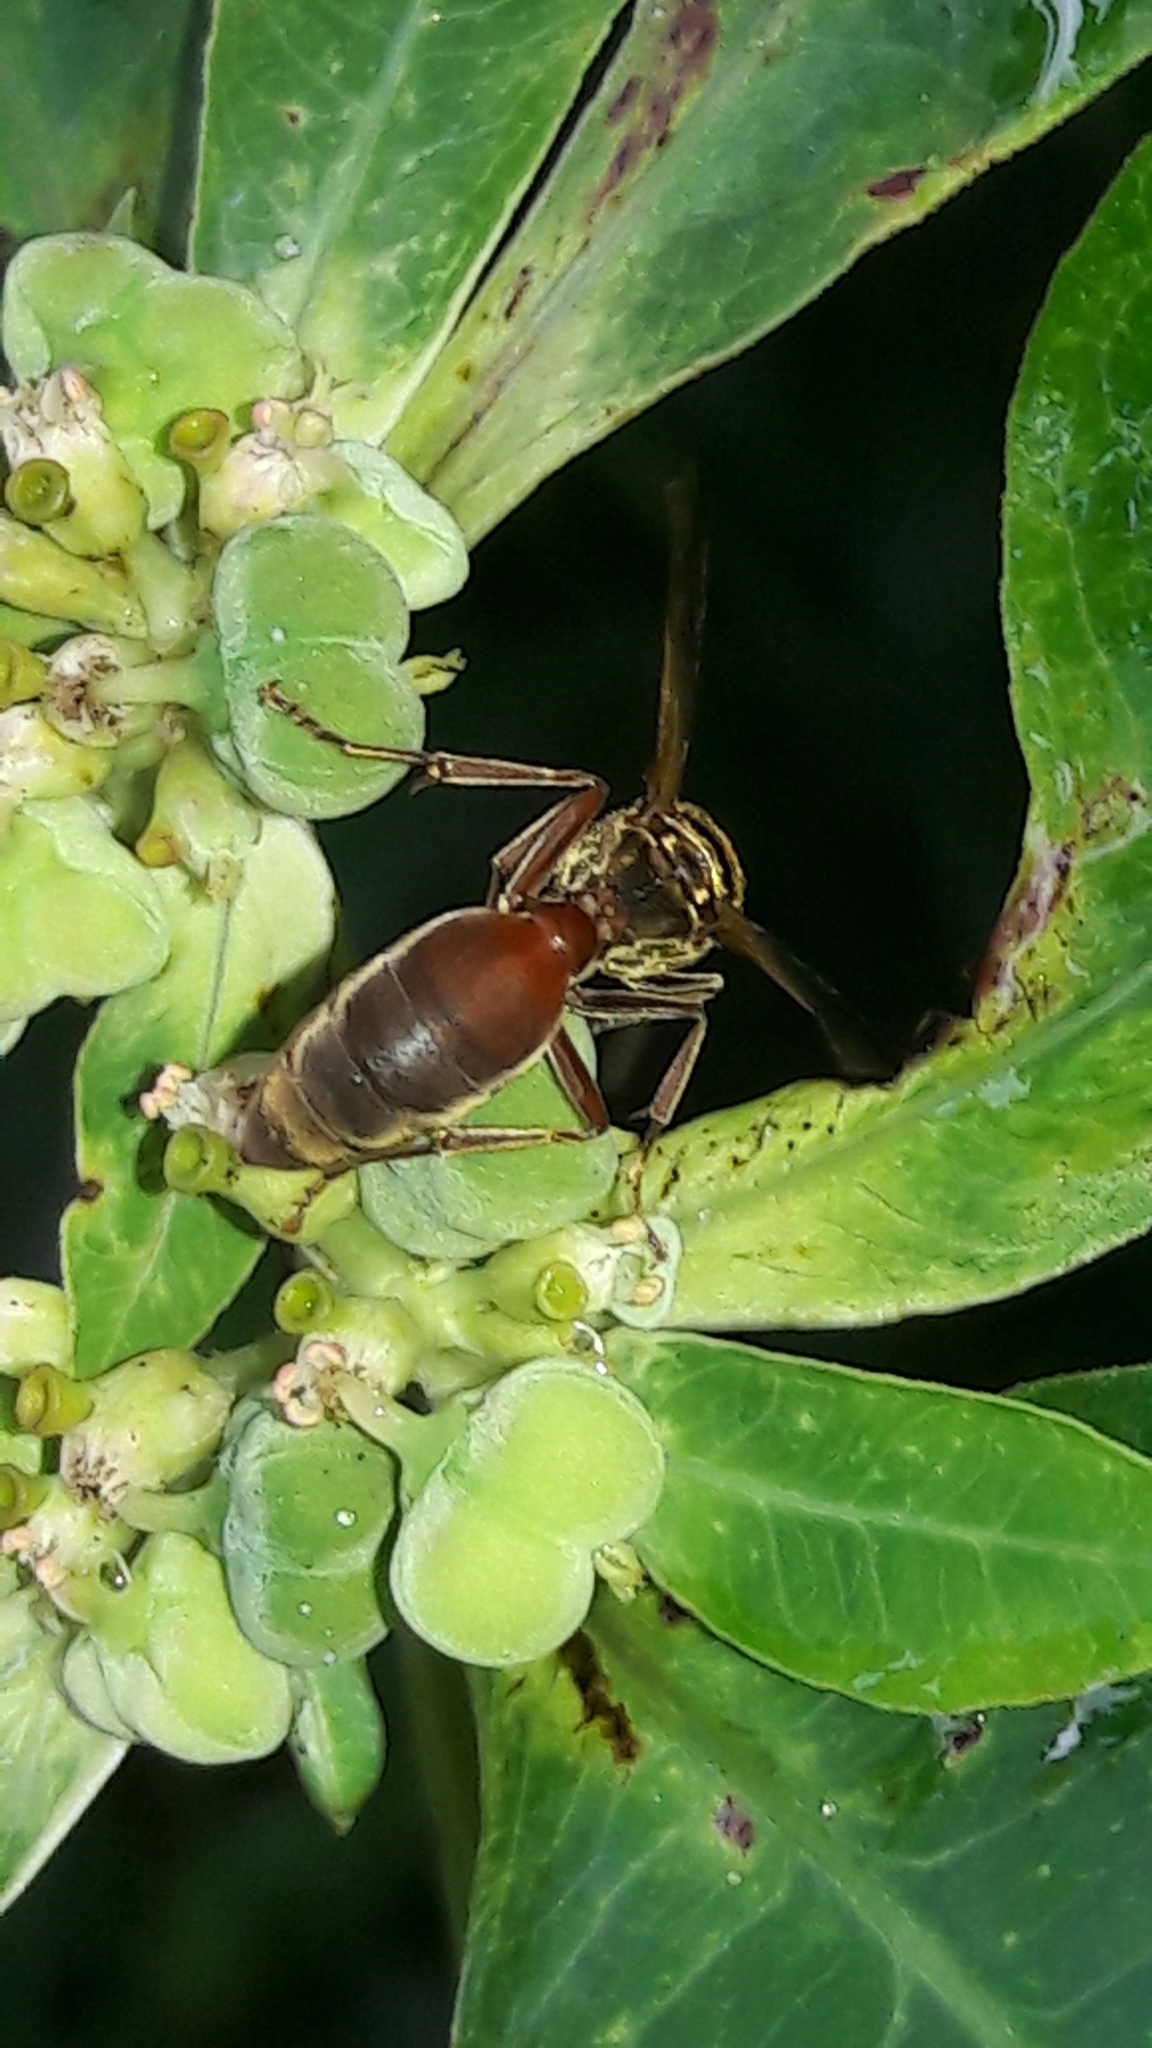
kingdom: Animalia
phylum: Arthropoda
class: Insecta
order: Hymenoptera
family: Eumenidae
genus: Polybia
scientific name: Polybia chrysothorax
